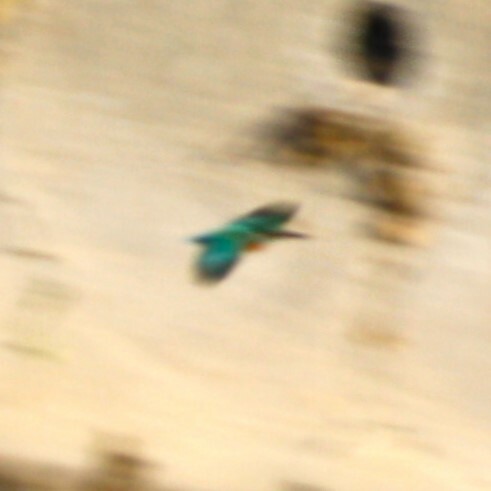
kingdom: Animalia
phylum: Chordata
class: Aves
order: Coraciiformes
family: Alcedinidae
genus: Alcedo
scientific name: Alcedo atthis
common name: Common kingfisher
